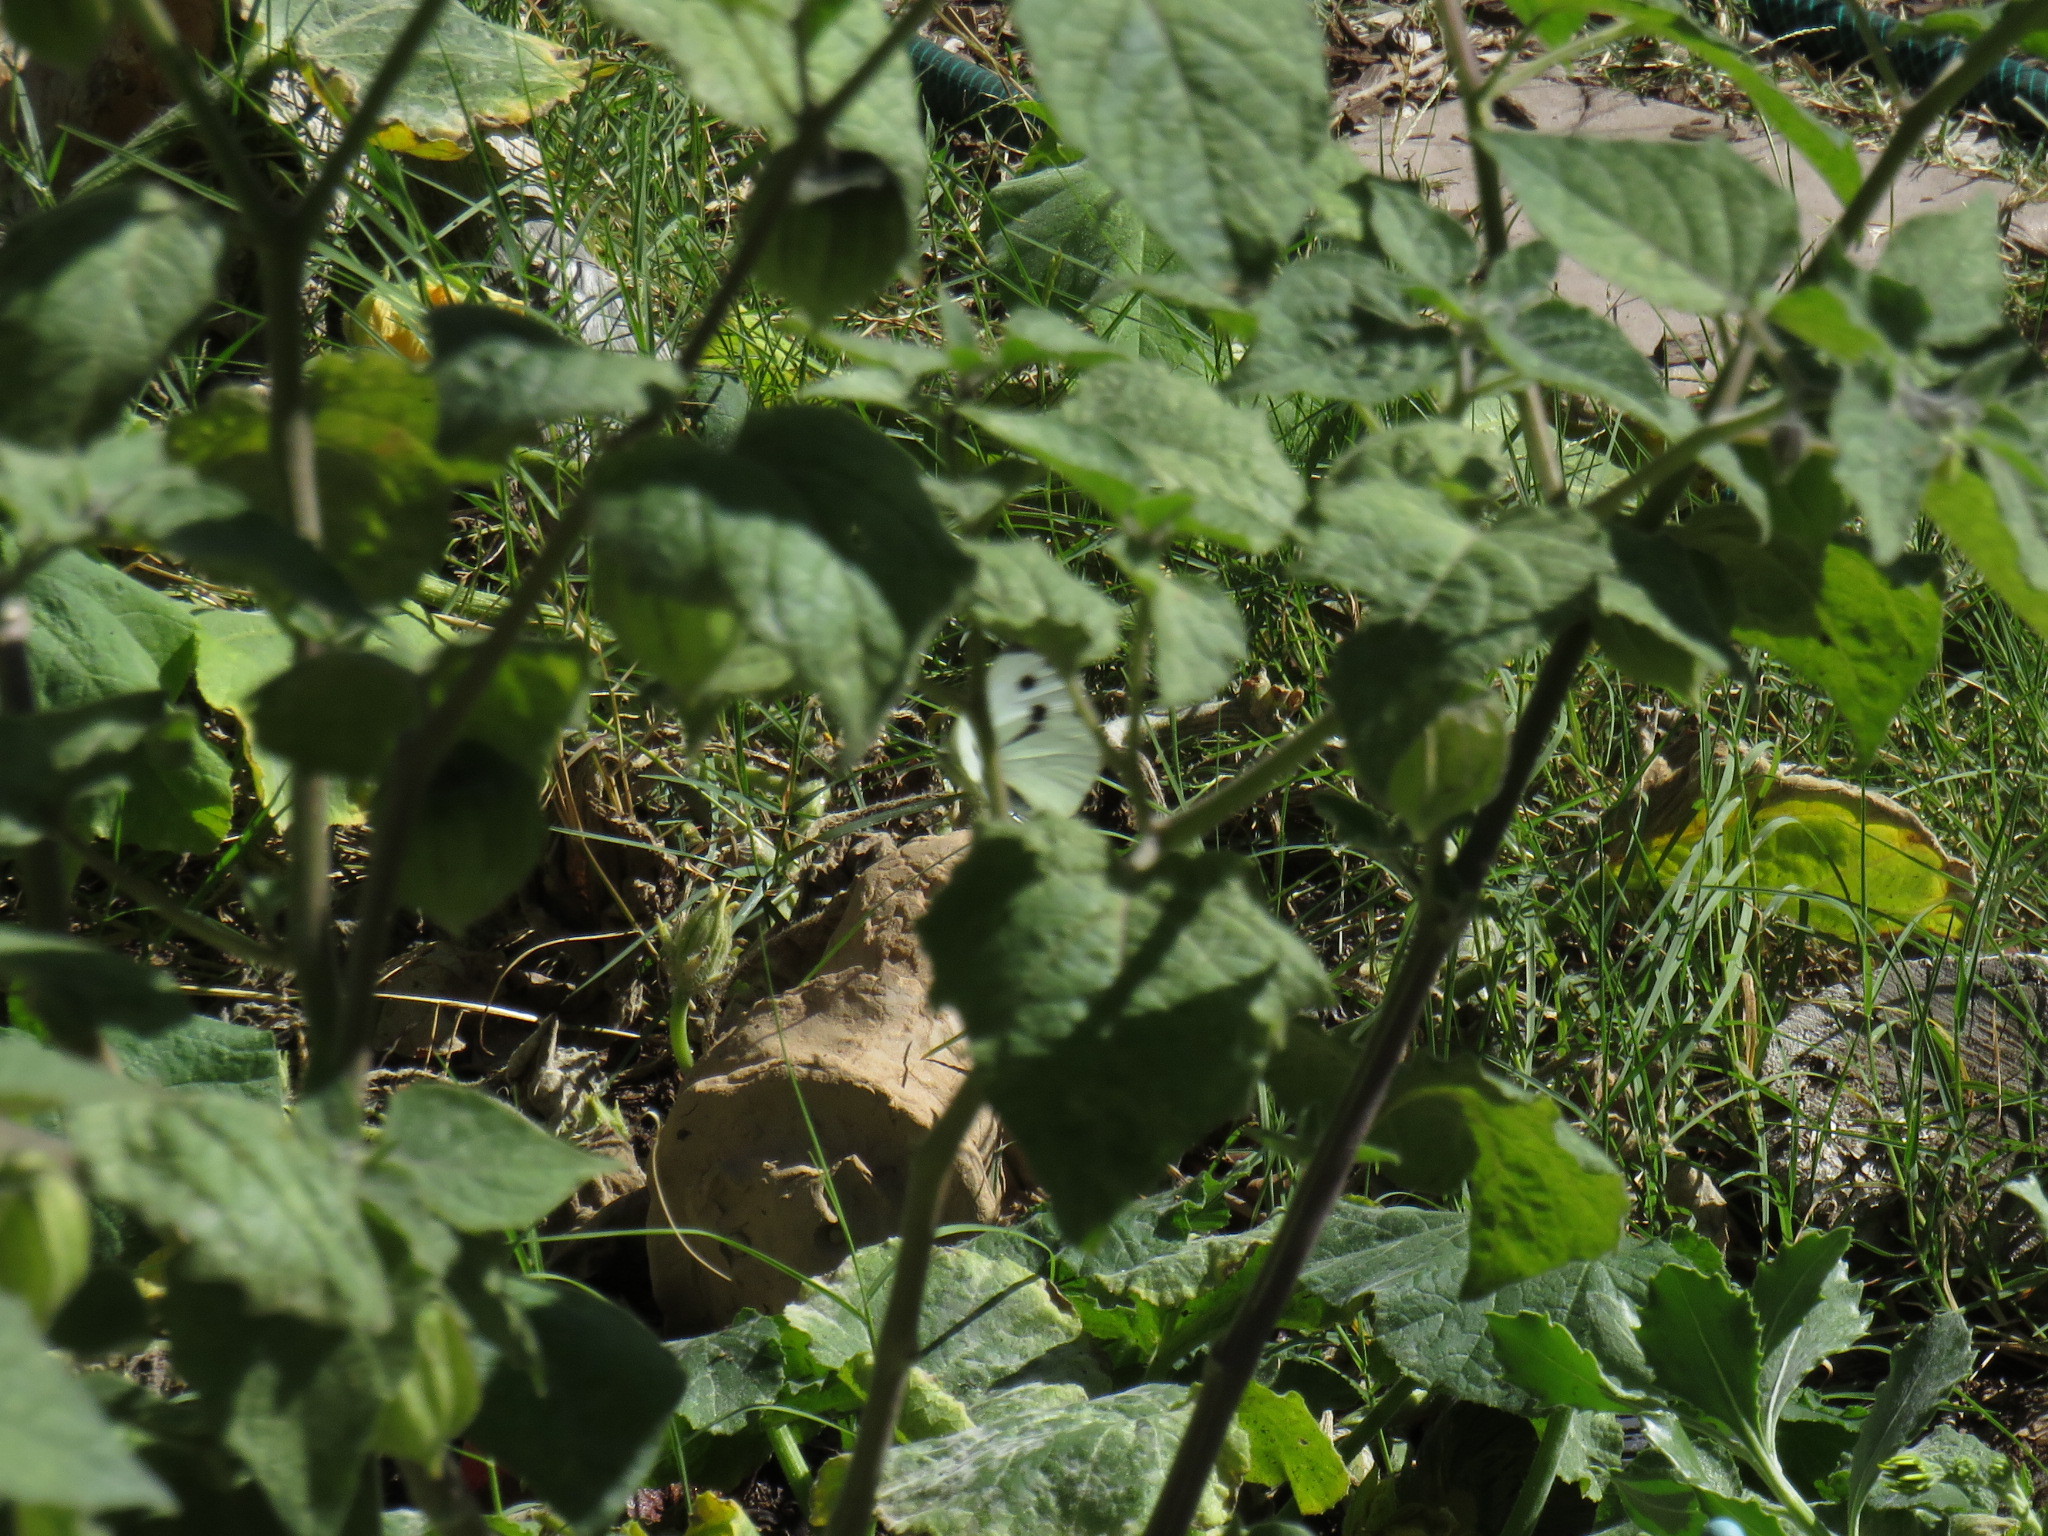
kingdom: Animalia
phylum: Arthropoda
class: Insecta
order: Lepidoptera
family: Pieridae
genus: Pieris
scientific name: Pieris brassicae
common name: Large white
